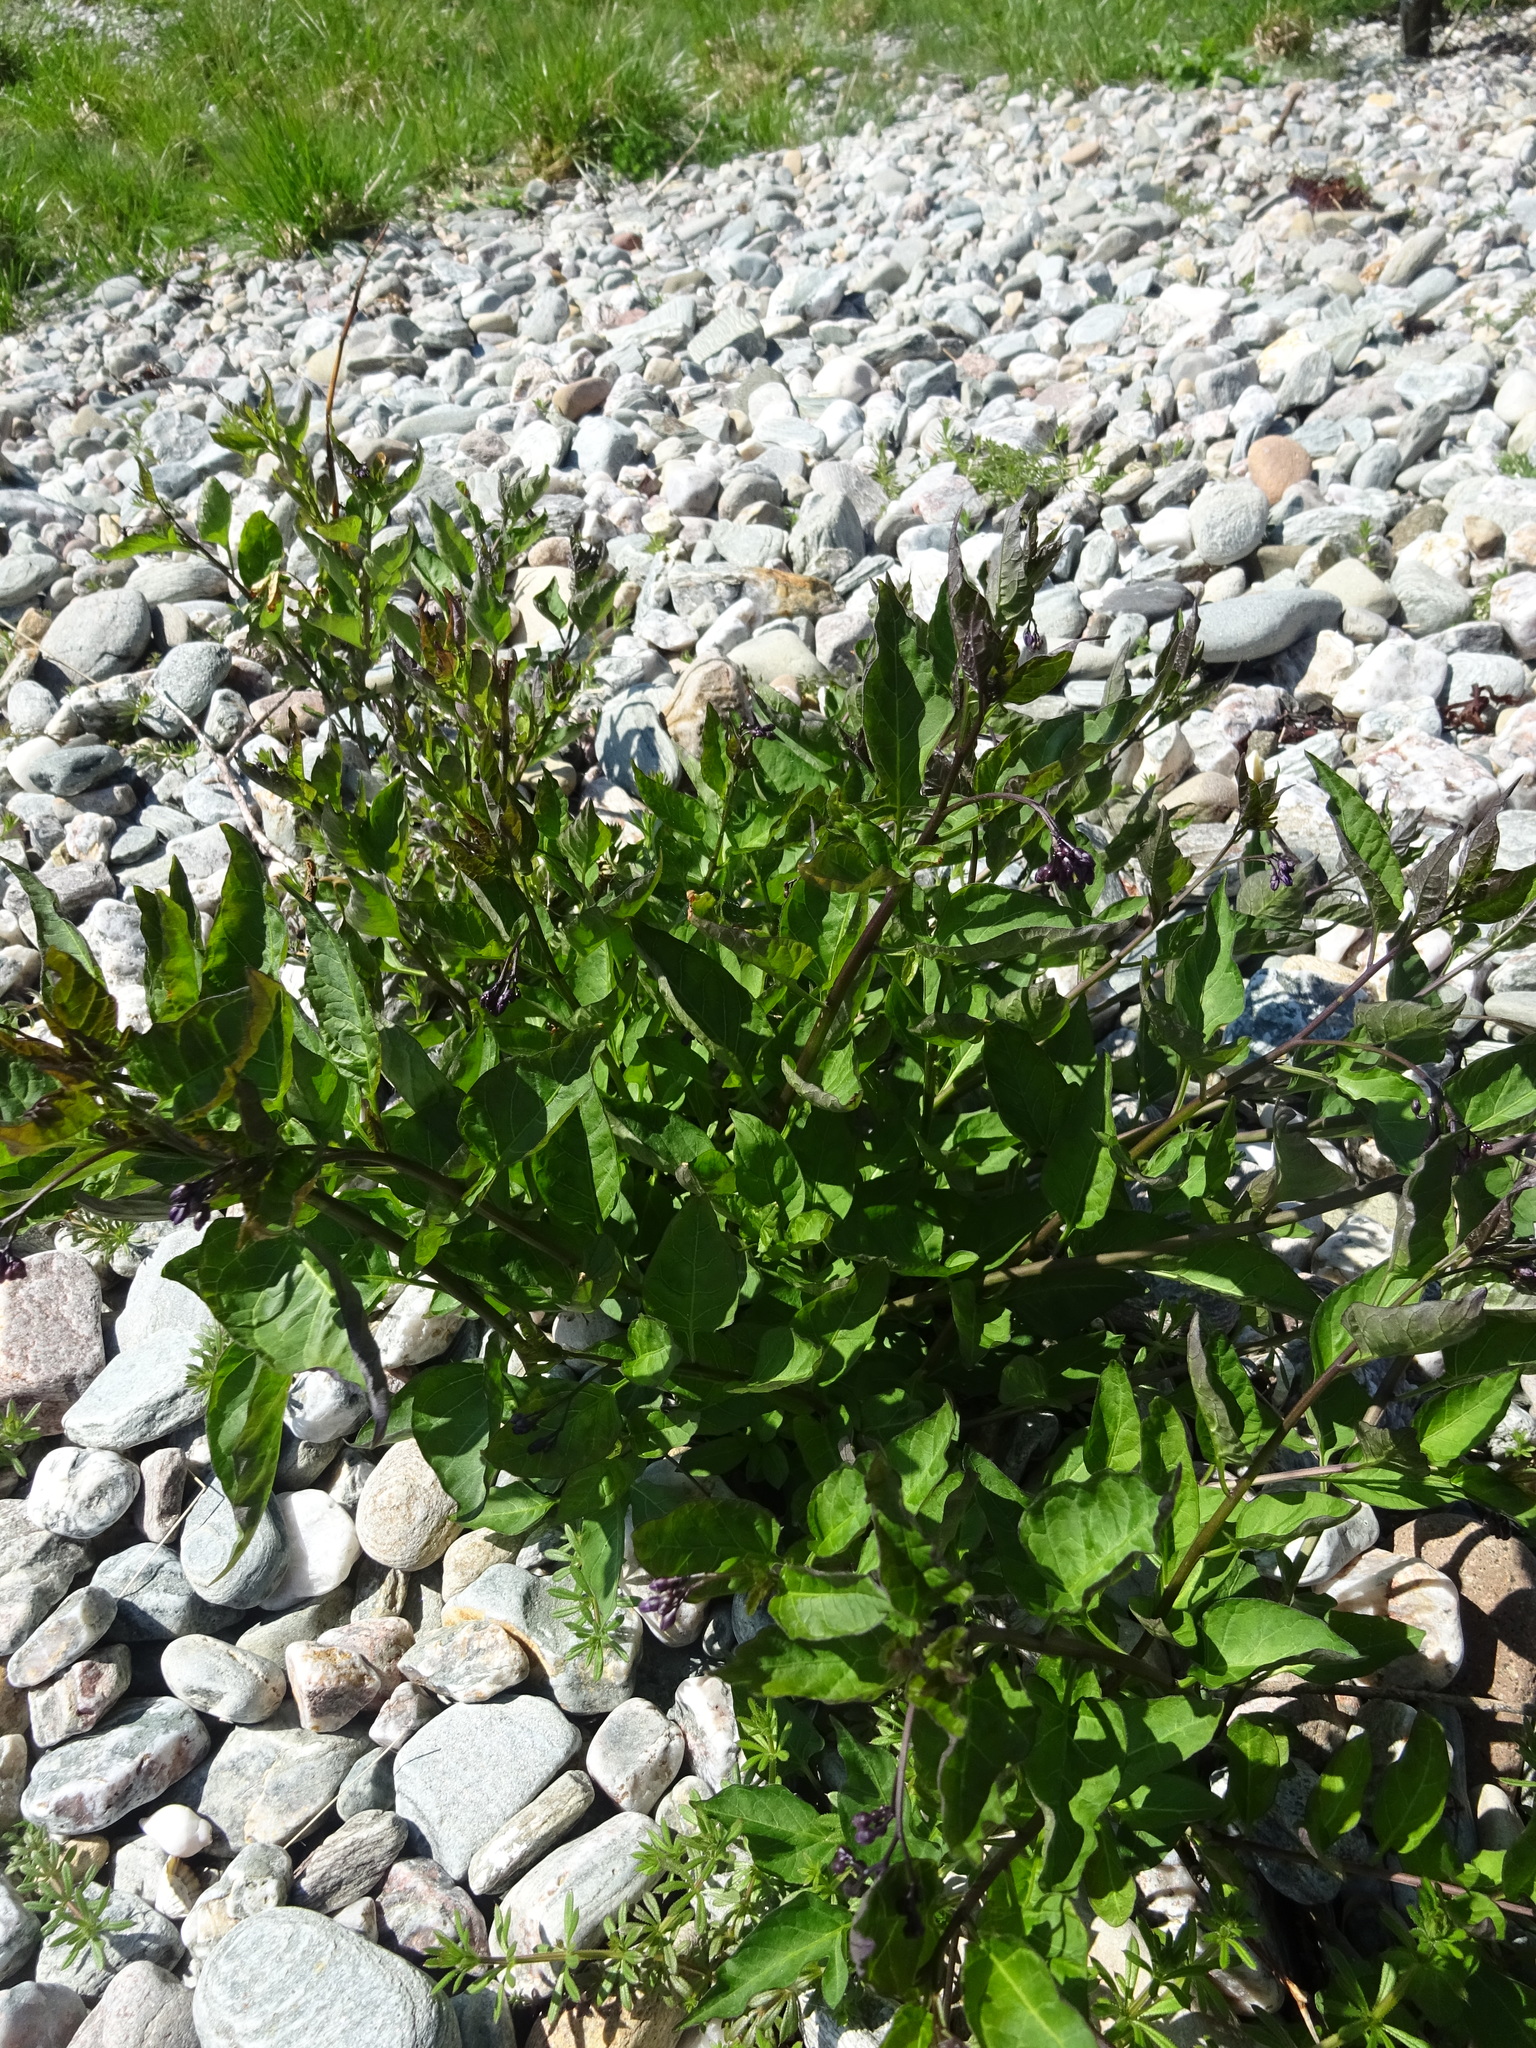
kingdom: Plantae
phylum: Tracheophyta
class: Magnoliopsida
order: Solanales
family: Solanaceae
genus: Solanum
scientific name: Solanum dulcamara
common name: Climbing nightshade
